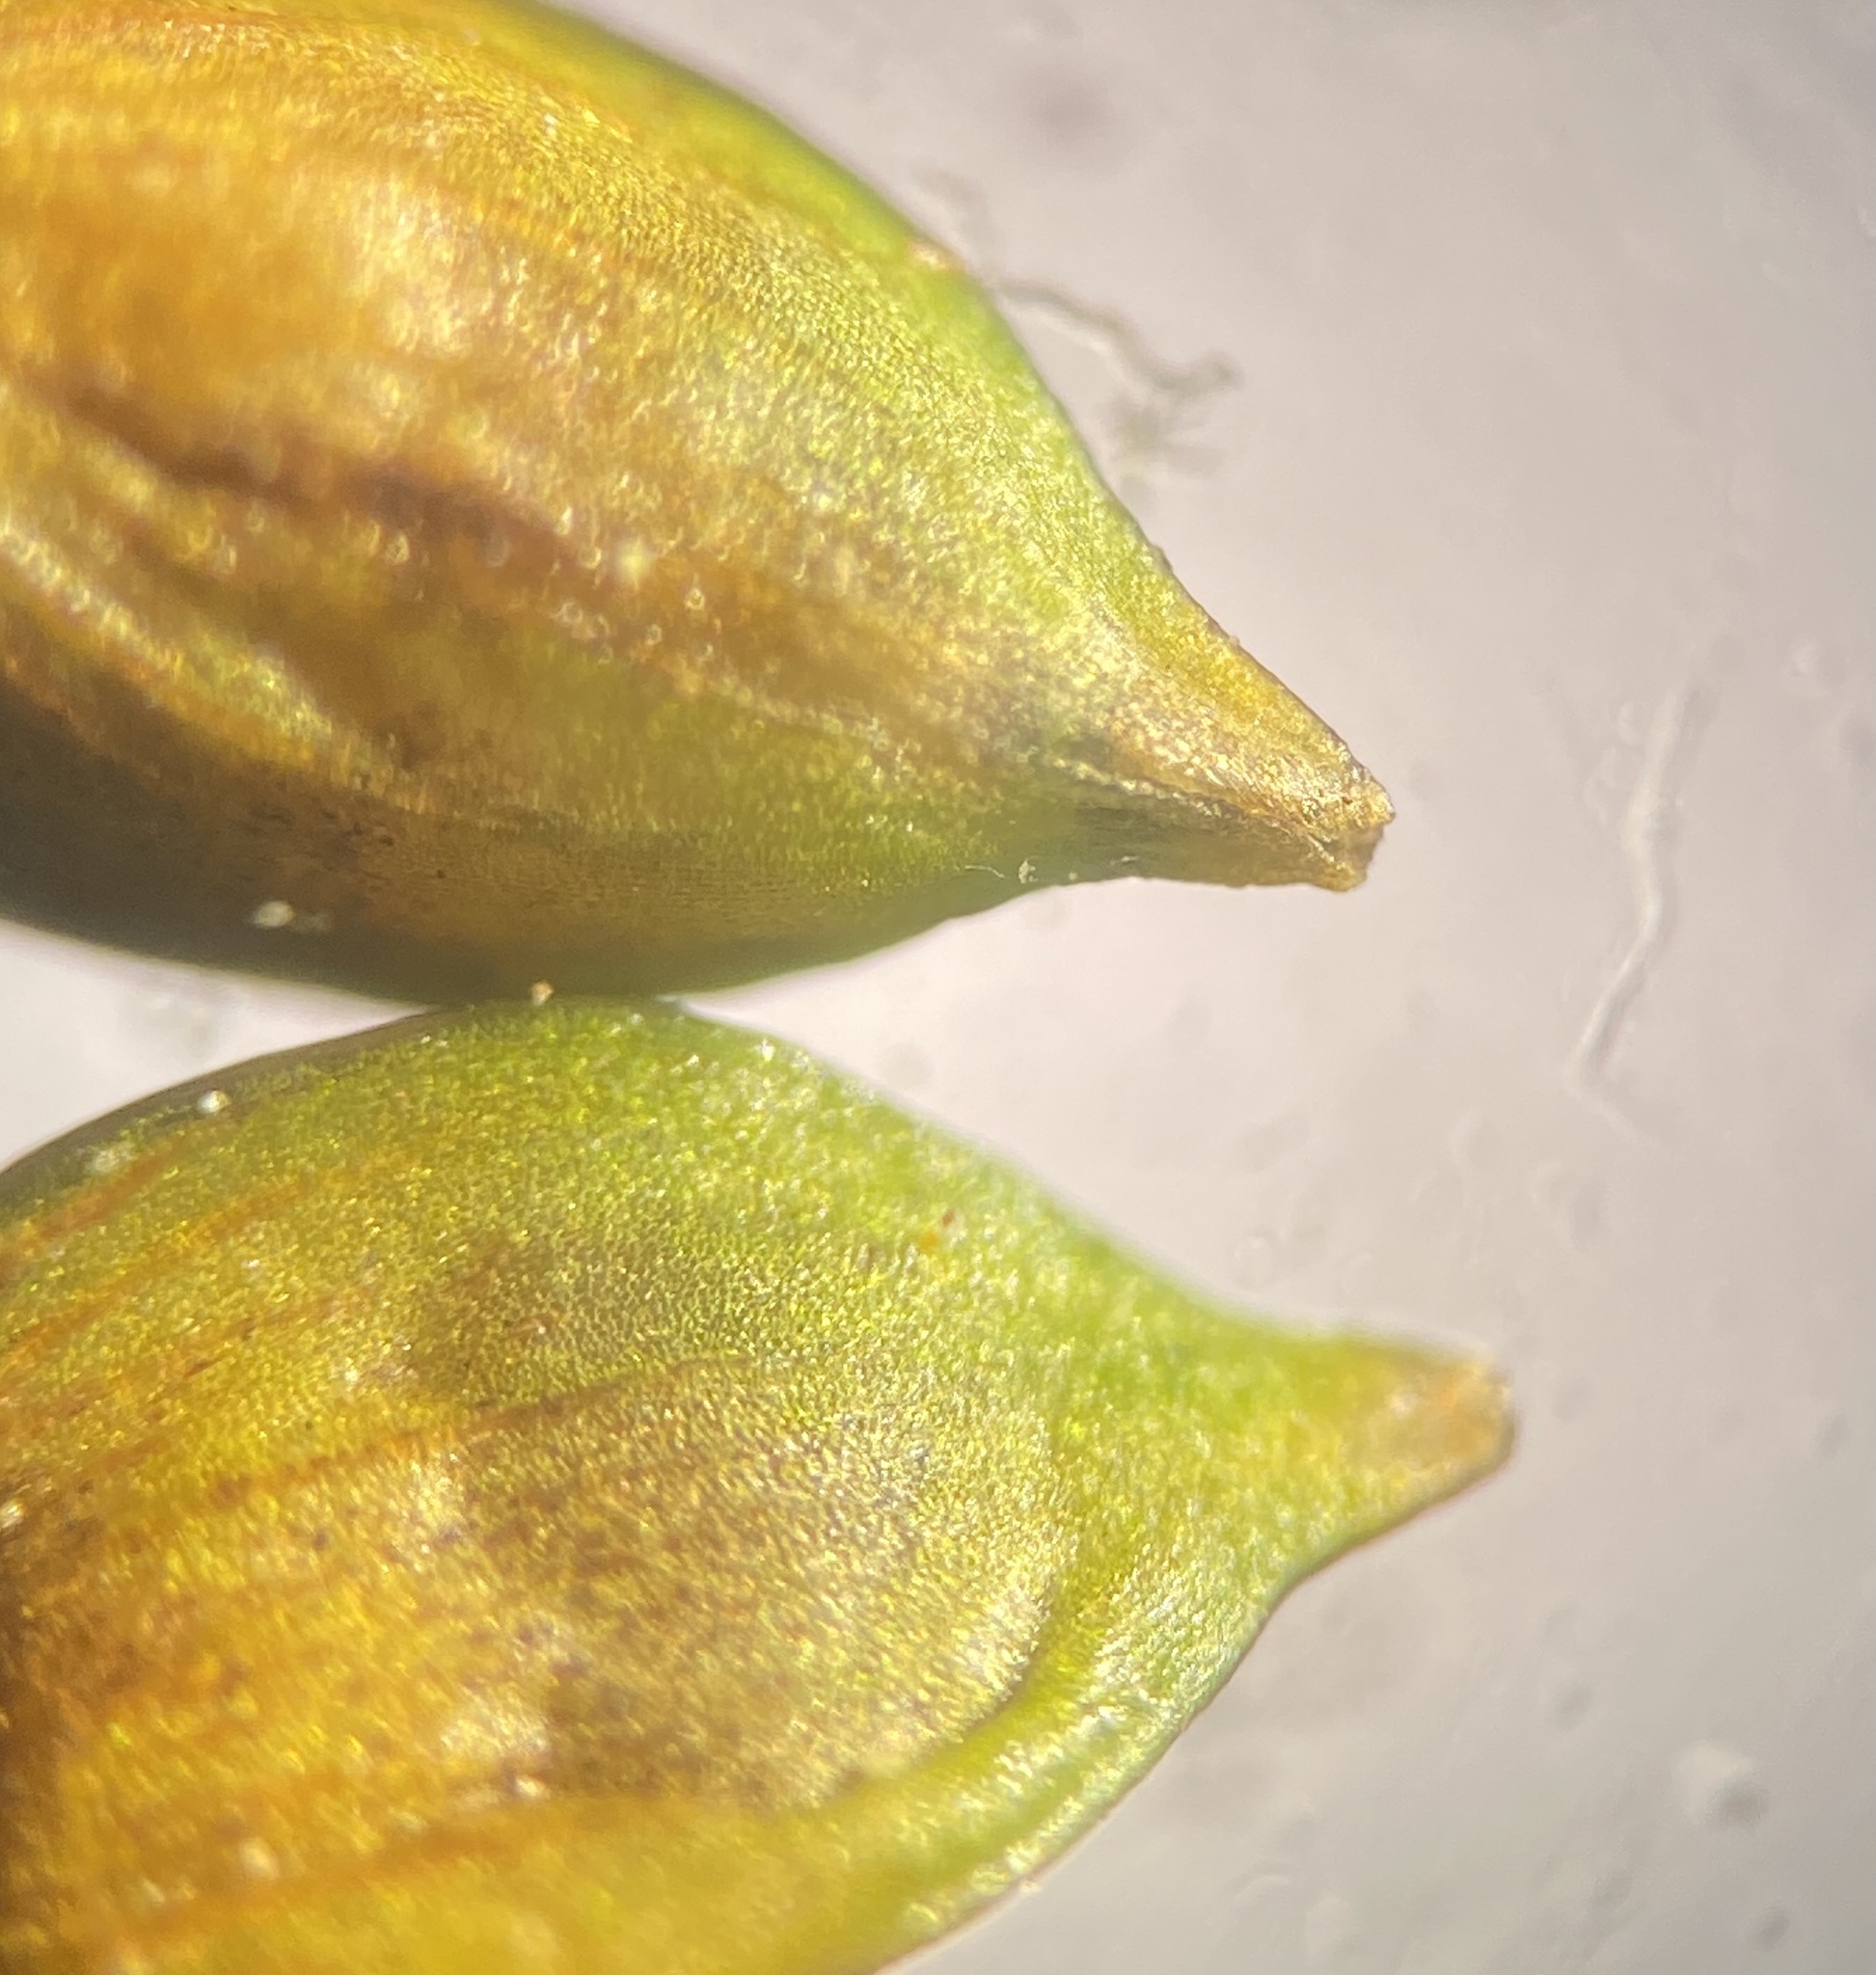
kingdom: Plantae
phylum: Tracheophyta
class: Liliopsida
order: Poales
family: Cyperaceae
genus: Carex
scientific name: Carex seorsa
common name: Swamp star sedge
